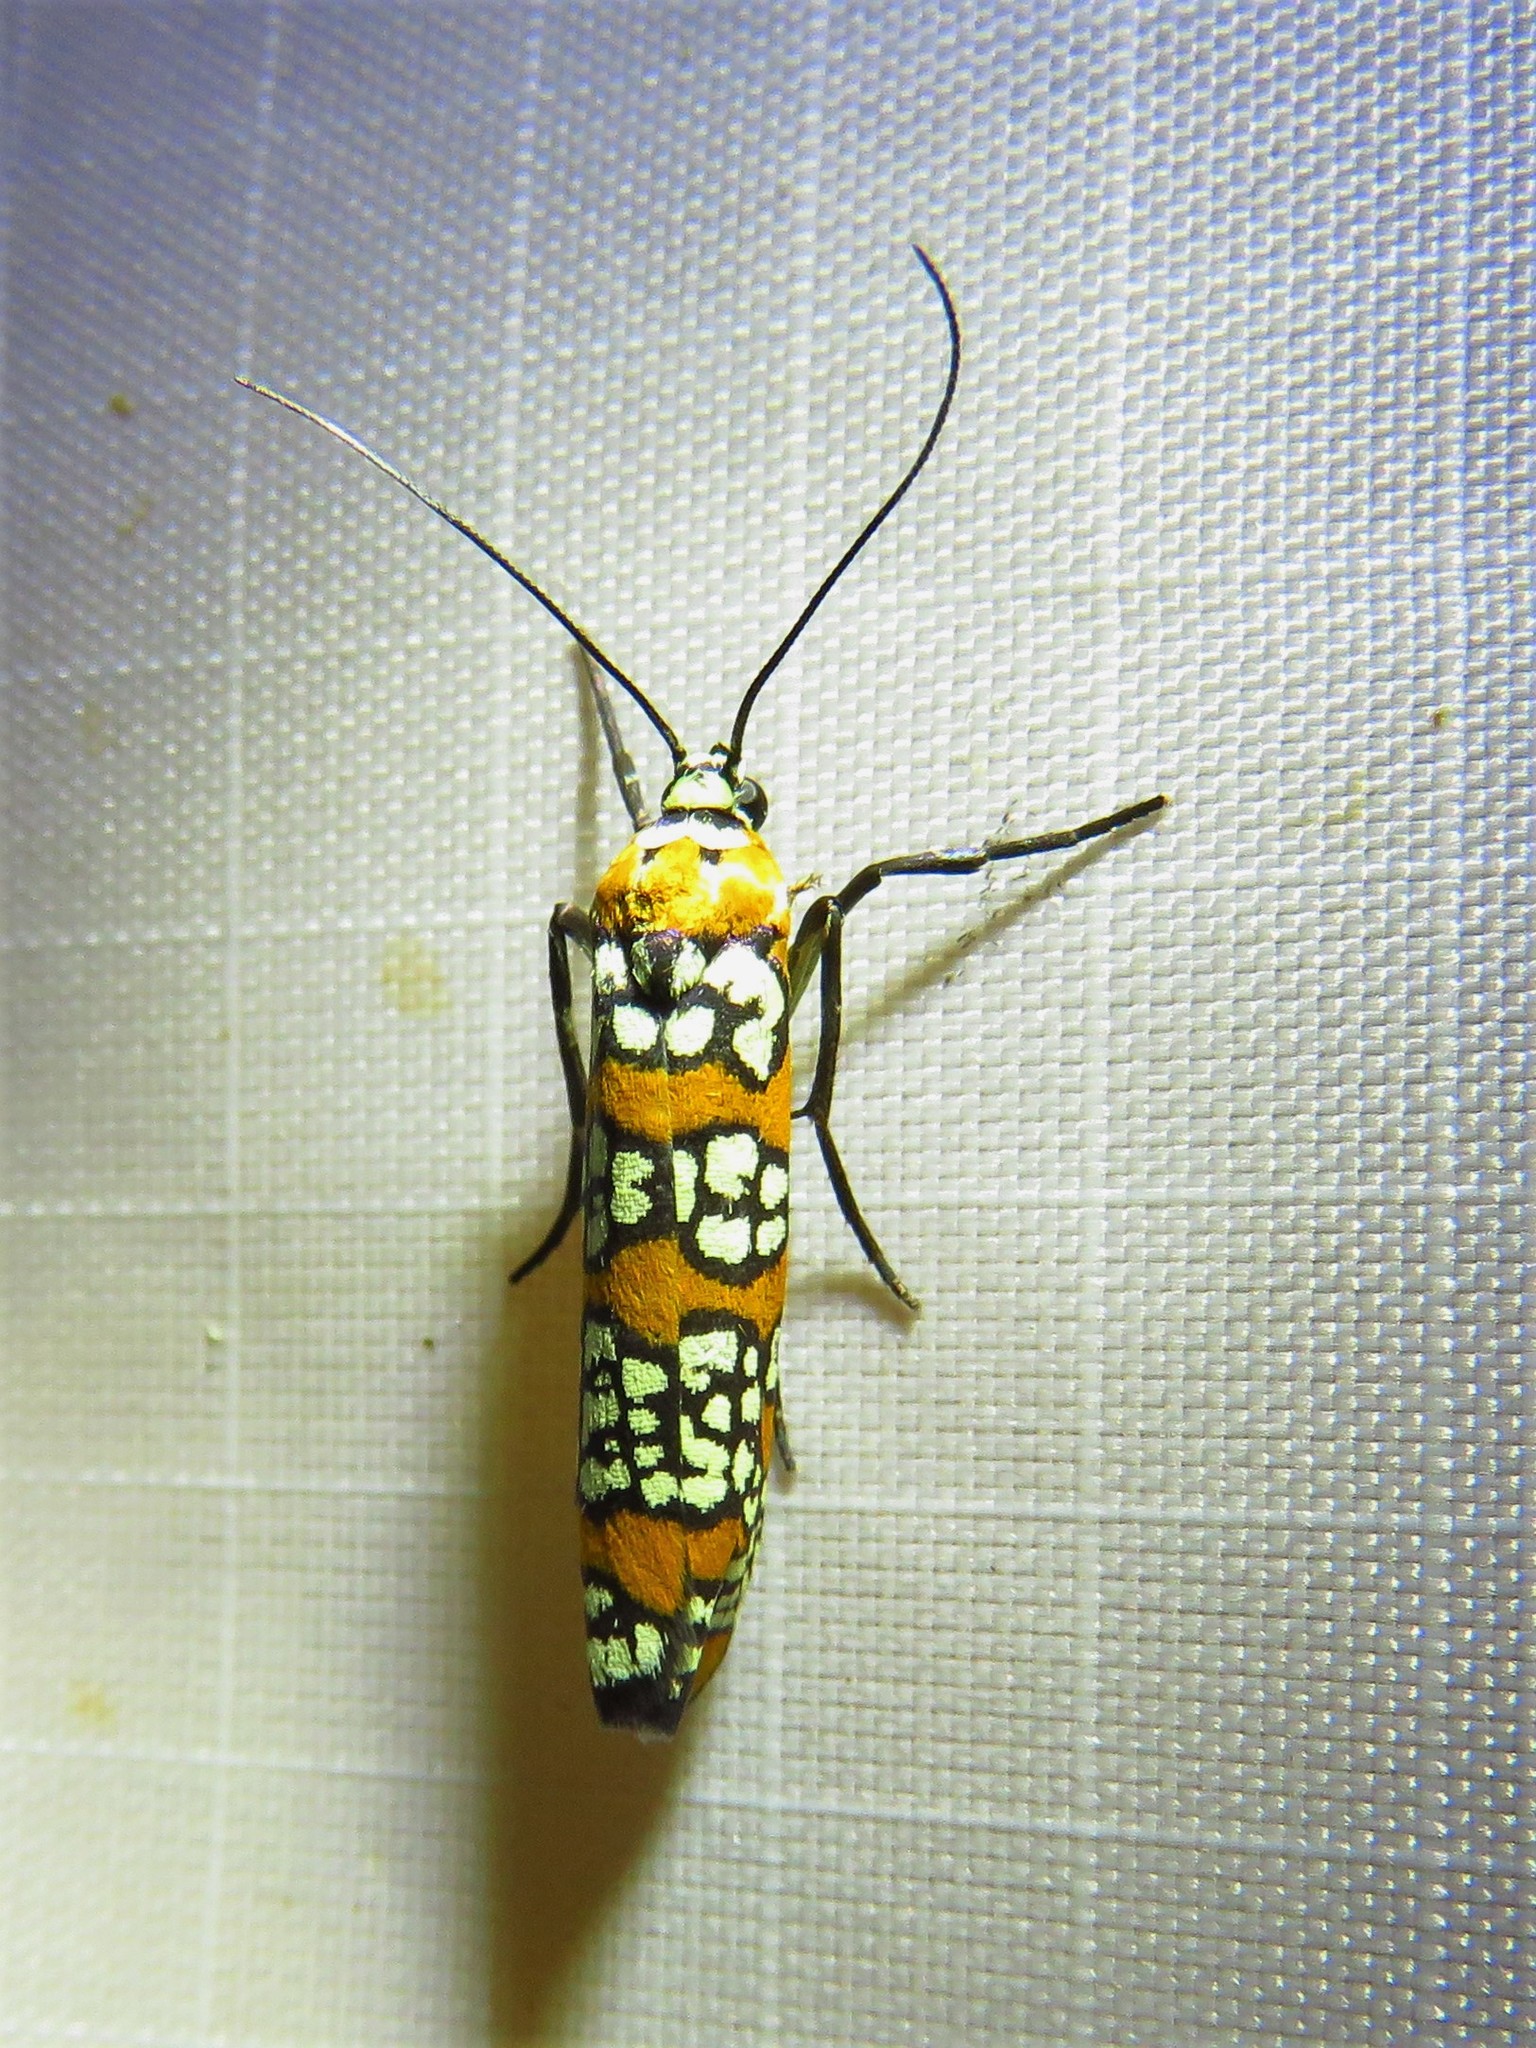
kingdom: Animalia
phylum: Arthropoda
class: Insecta
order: Lepidoptera
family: Attevidae
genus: Atteva
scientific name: Atteva punctella
